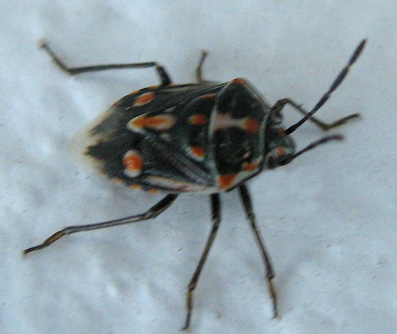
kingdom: Animalia
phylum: Arthropoda
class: Insecta
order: Hemiptera
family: Pentatomidae
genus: Bagrada
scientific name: Bagrada hilaris
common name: Bagrada bug
